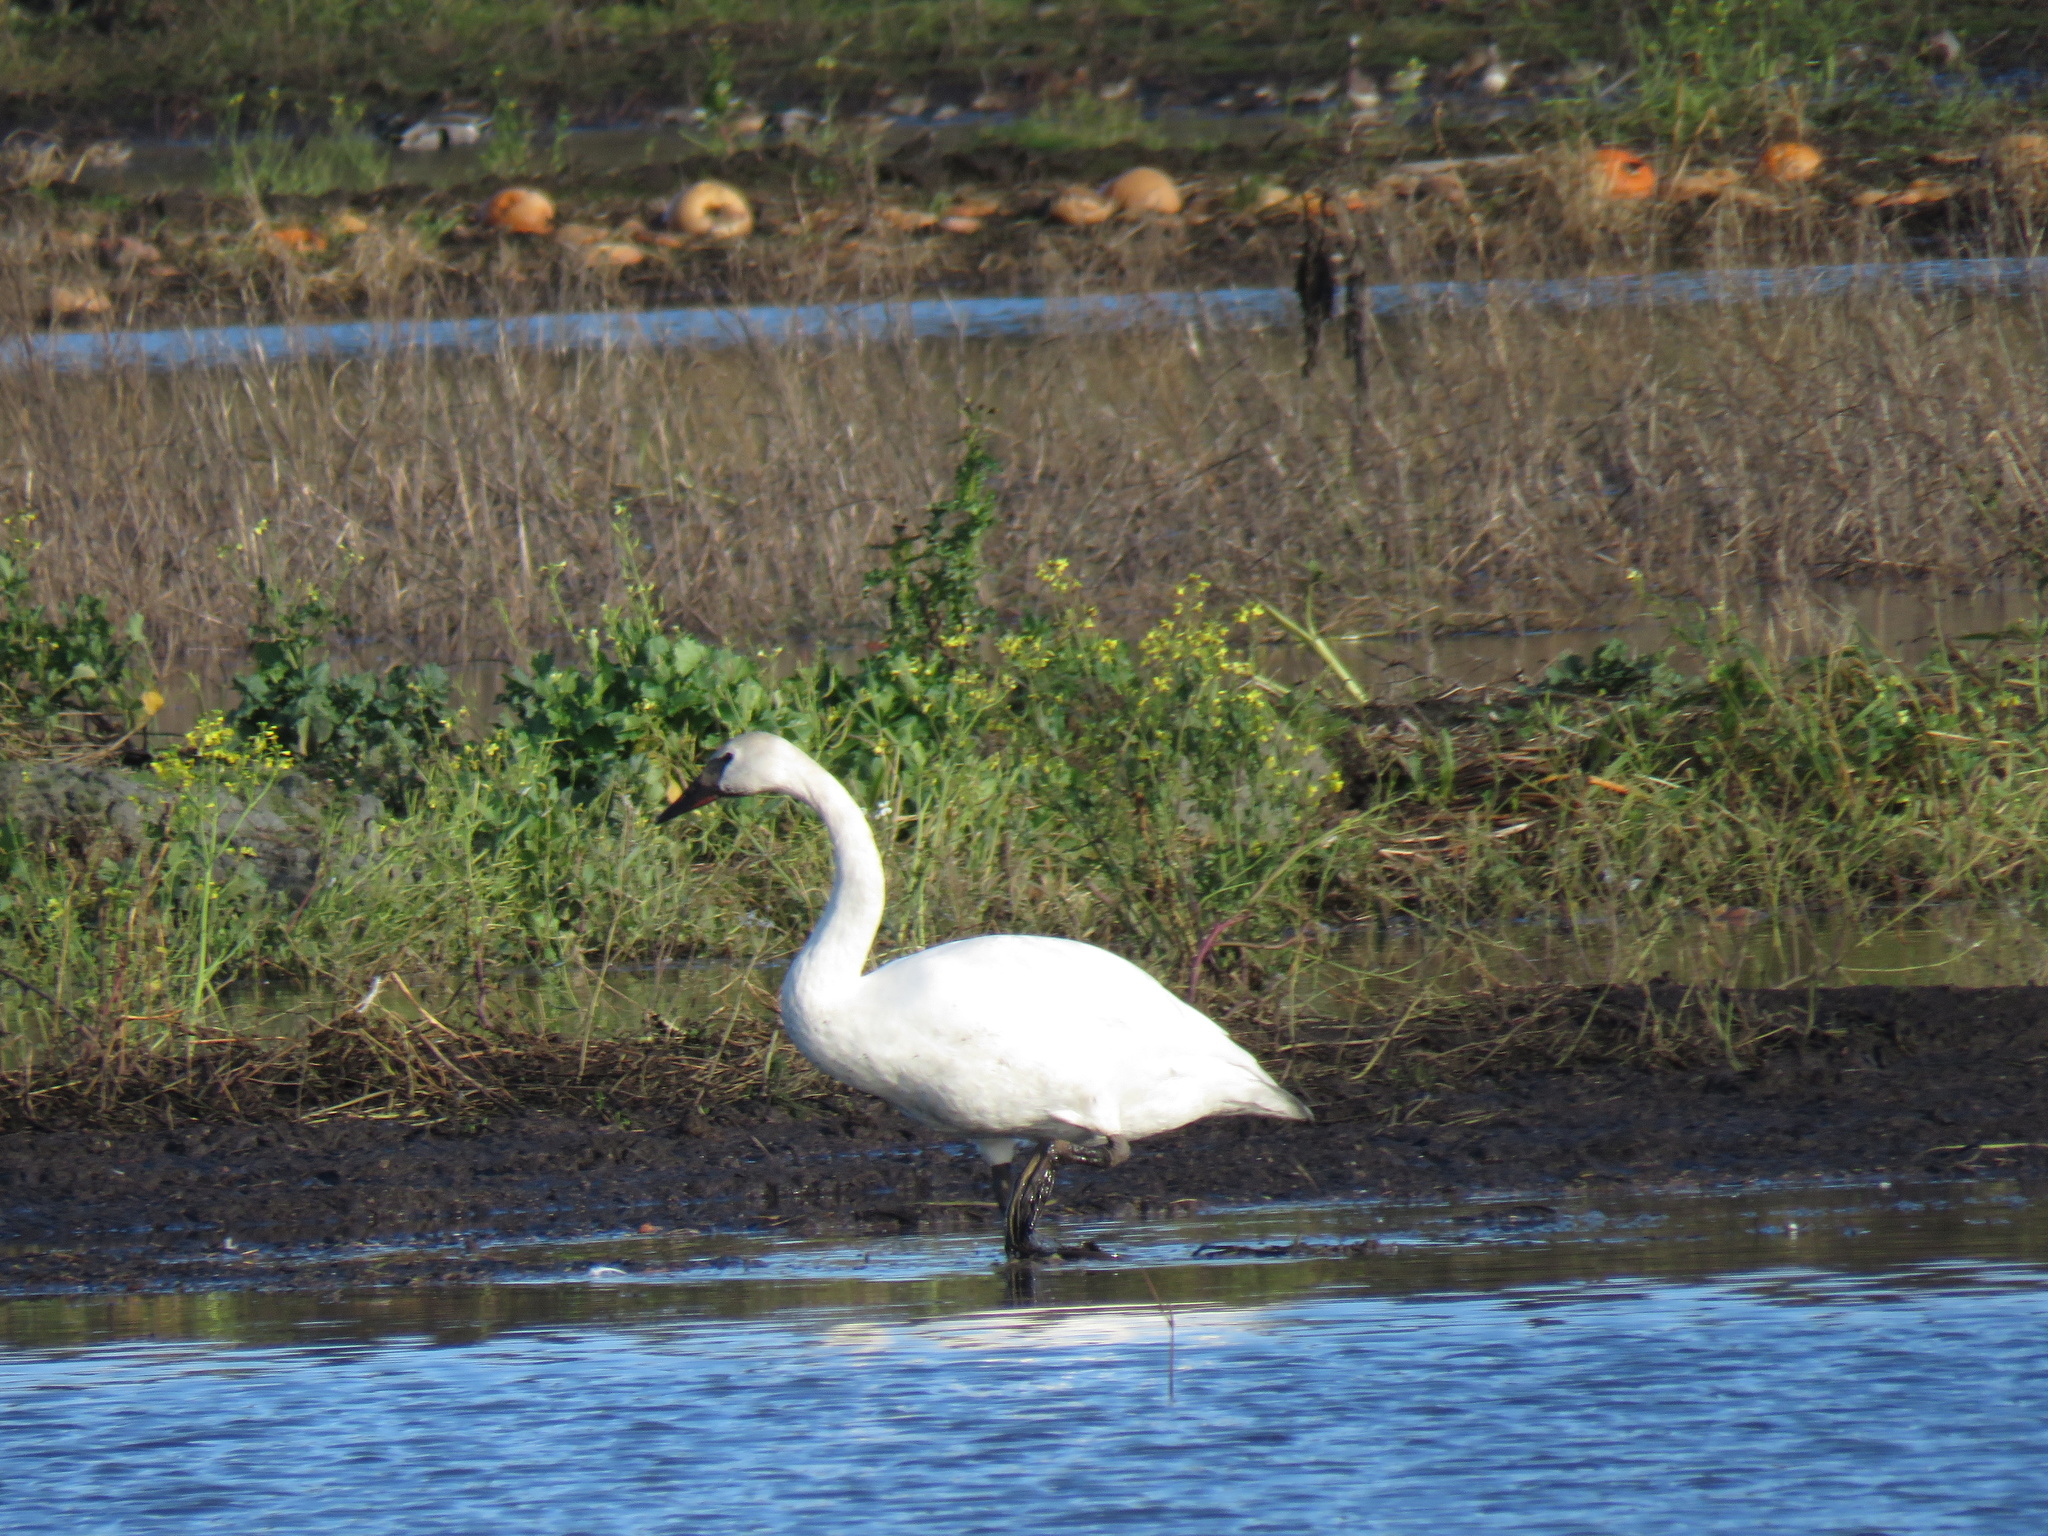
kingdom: Animalia
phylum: Chordata
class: Aves
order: Anseriformes
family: Anatidae
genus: Cygnus
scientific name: Cygnus buccinator
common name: Trumpeter swan
